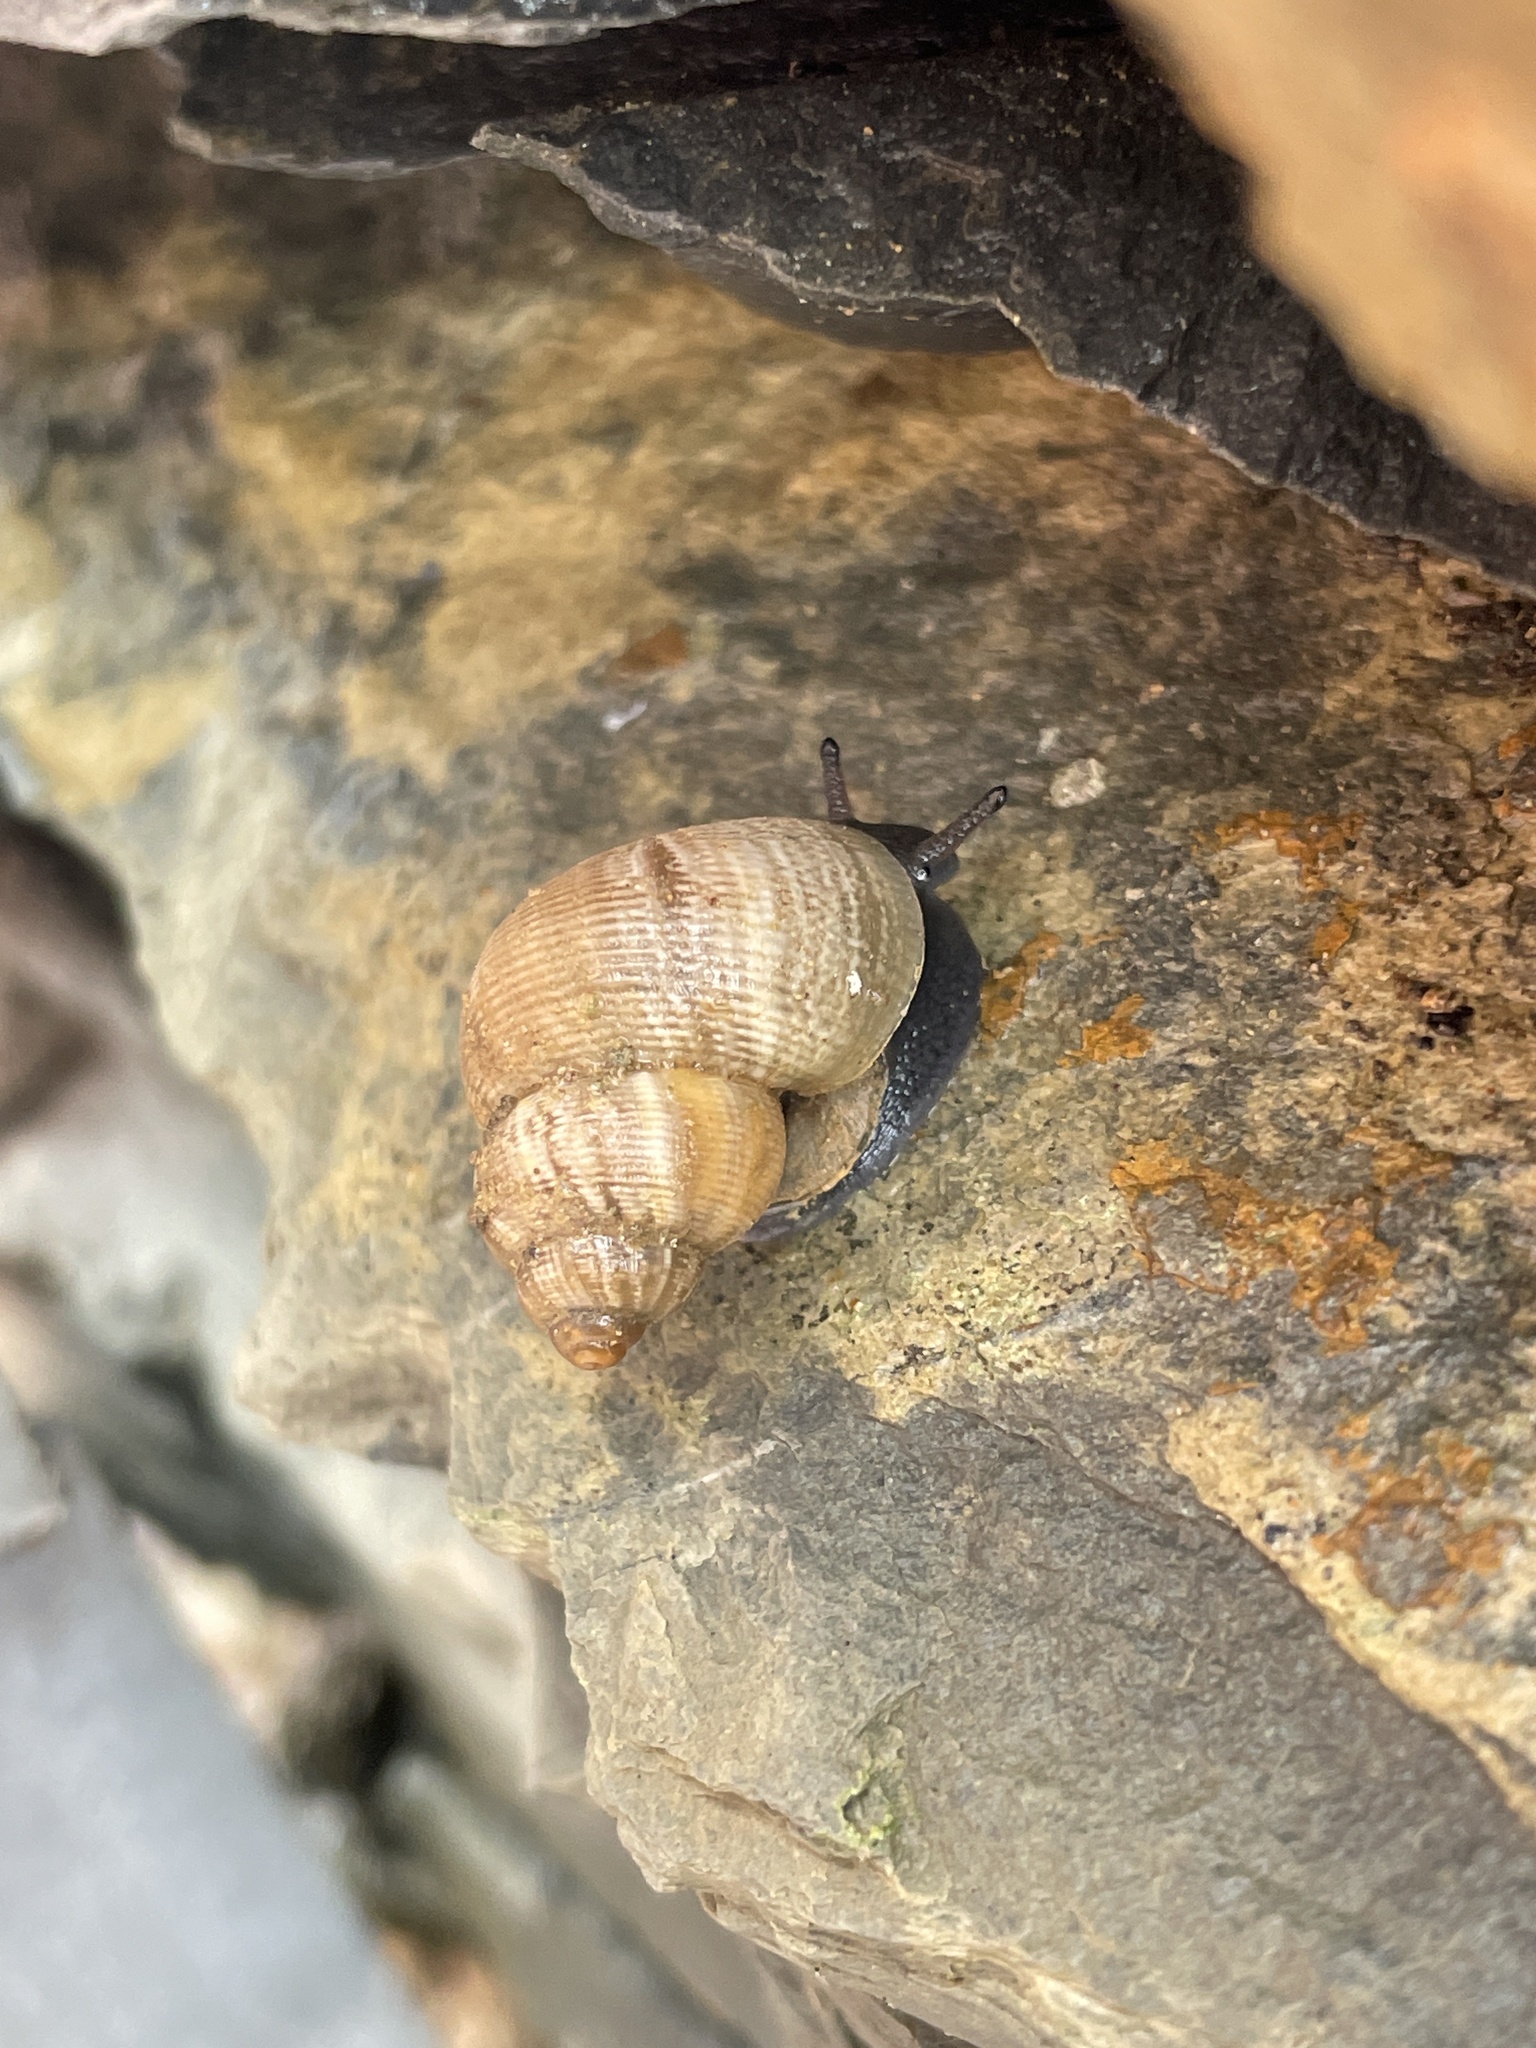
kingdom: Animalia
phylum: Mollusca
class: Gastropoda
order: Littorinimorpha
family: Pomatiidae
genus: Pomatias
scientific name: Pomatias elegans
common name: Red-mouthed snail
